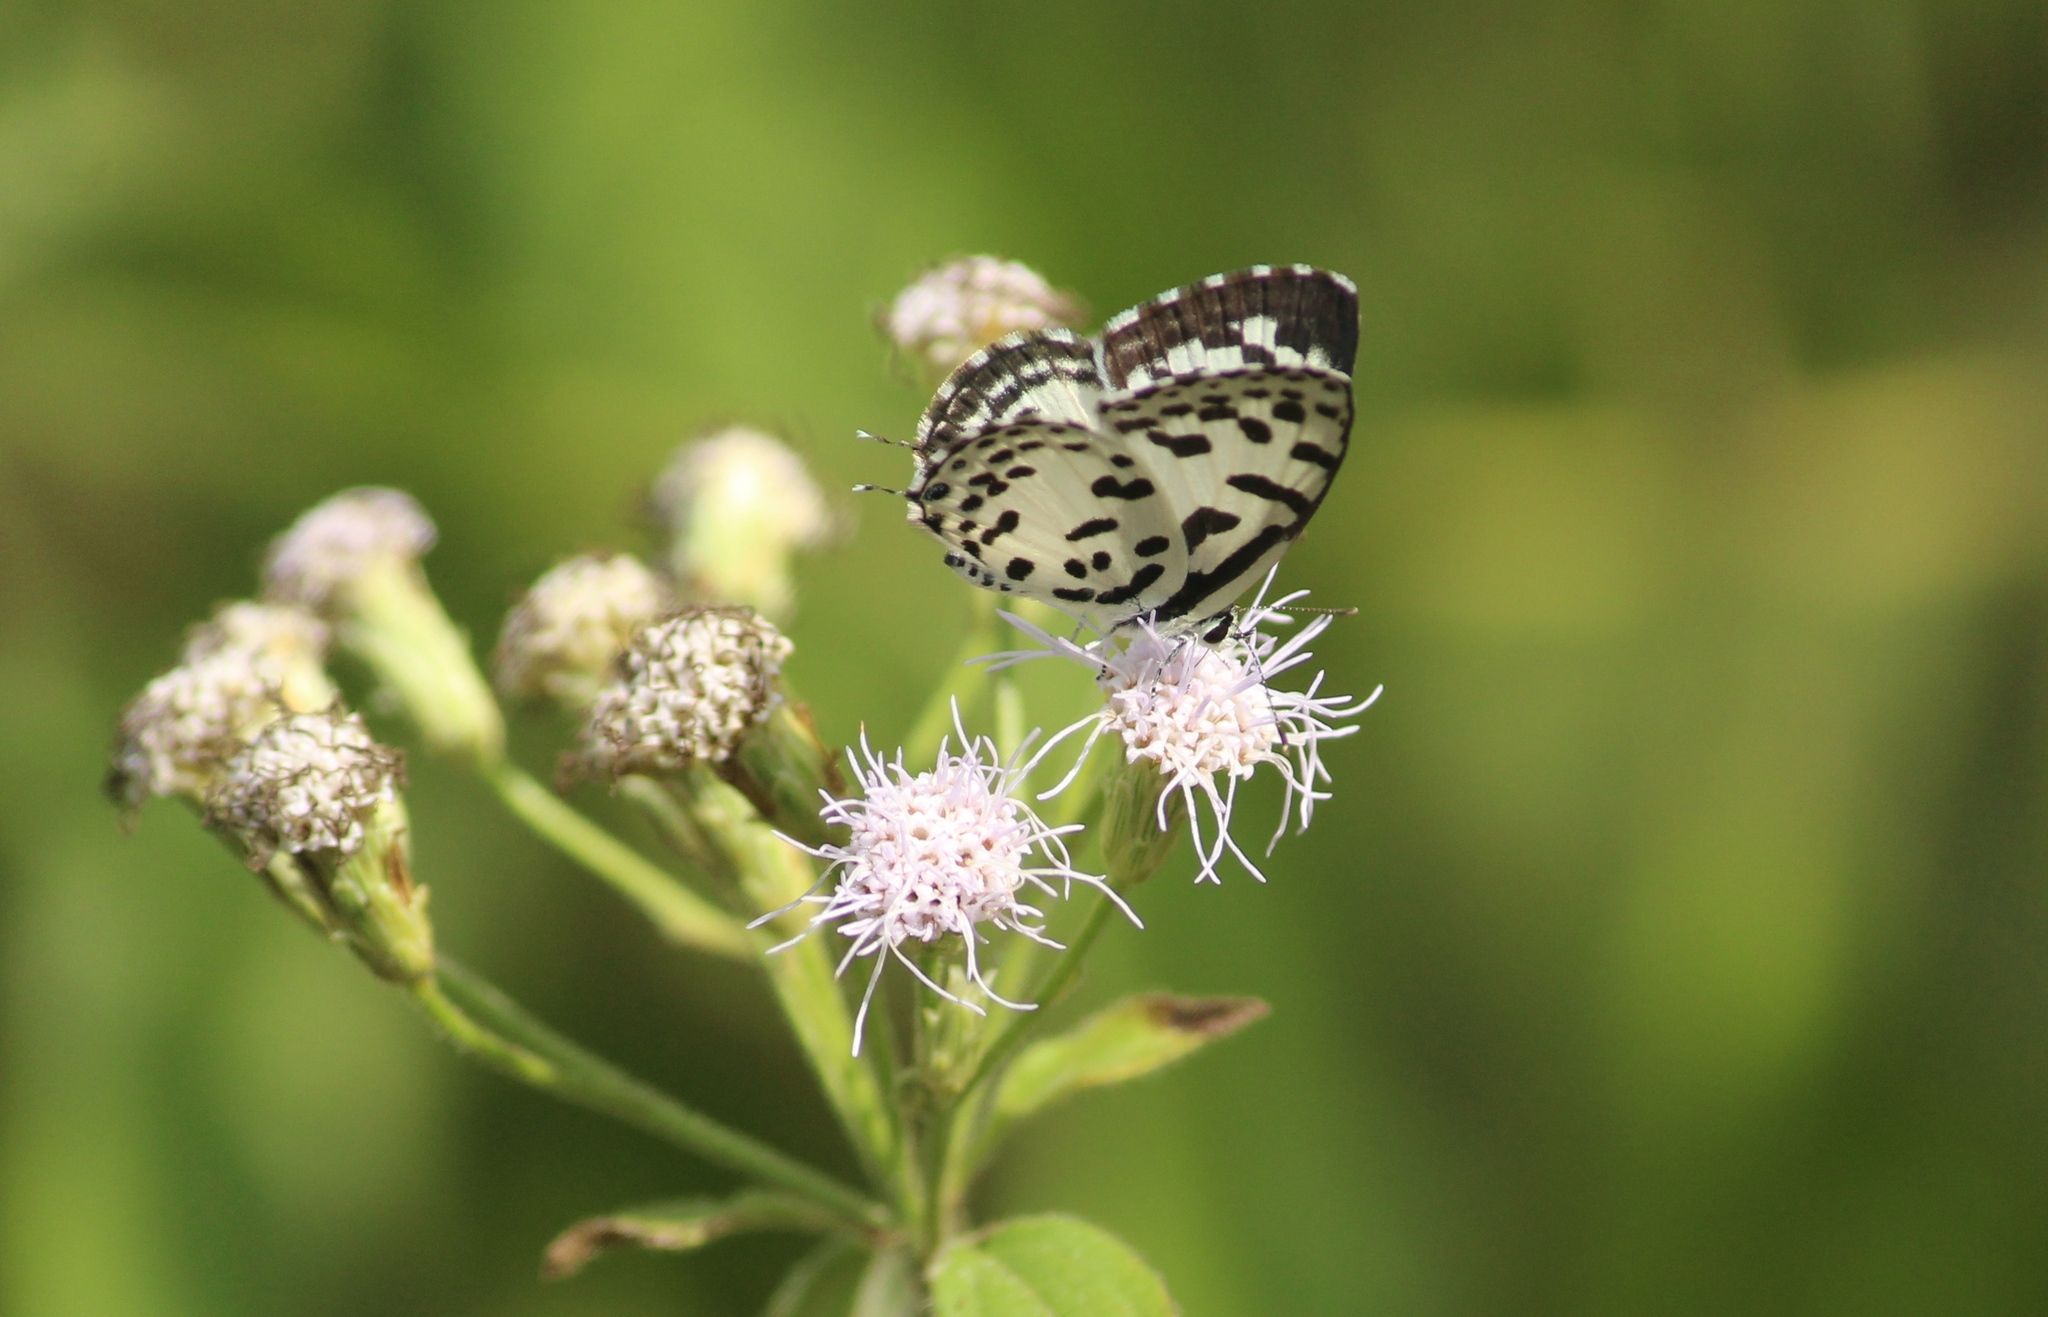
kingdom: Animalia
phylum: Arthropoda
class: Insecta
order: Lepidoptera
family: Lycaenidae
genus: Castalius
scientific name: Castalius rosimon
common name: Common pierrot
